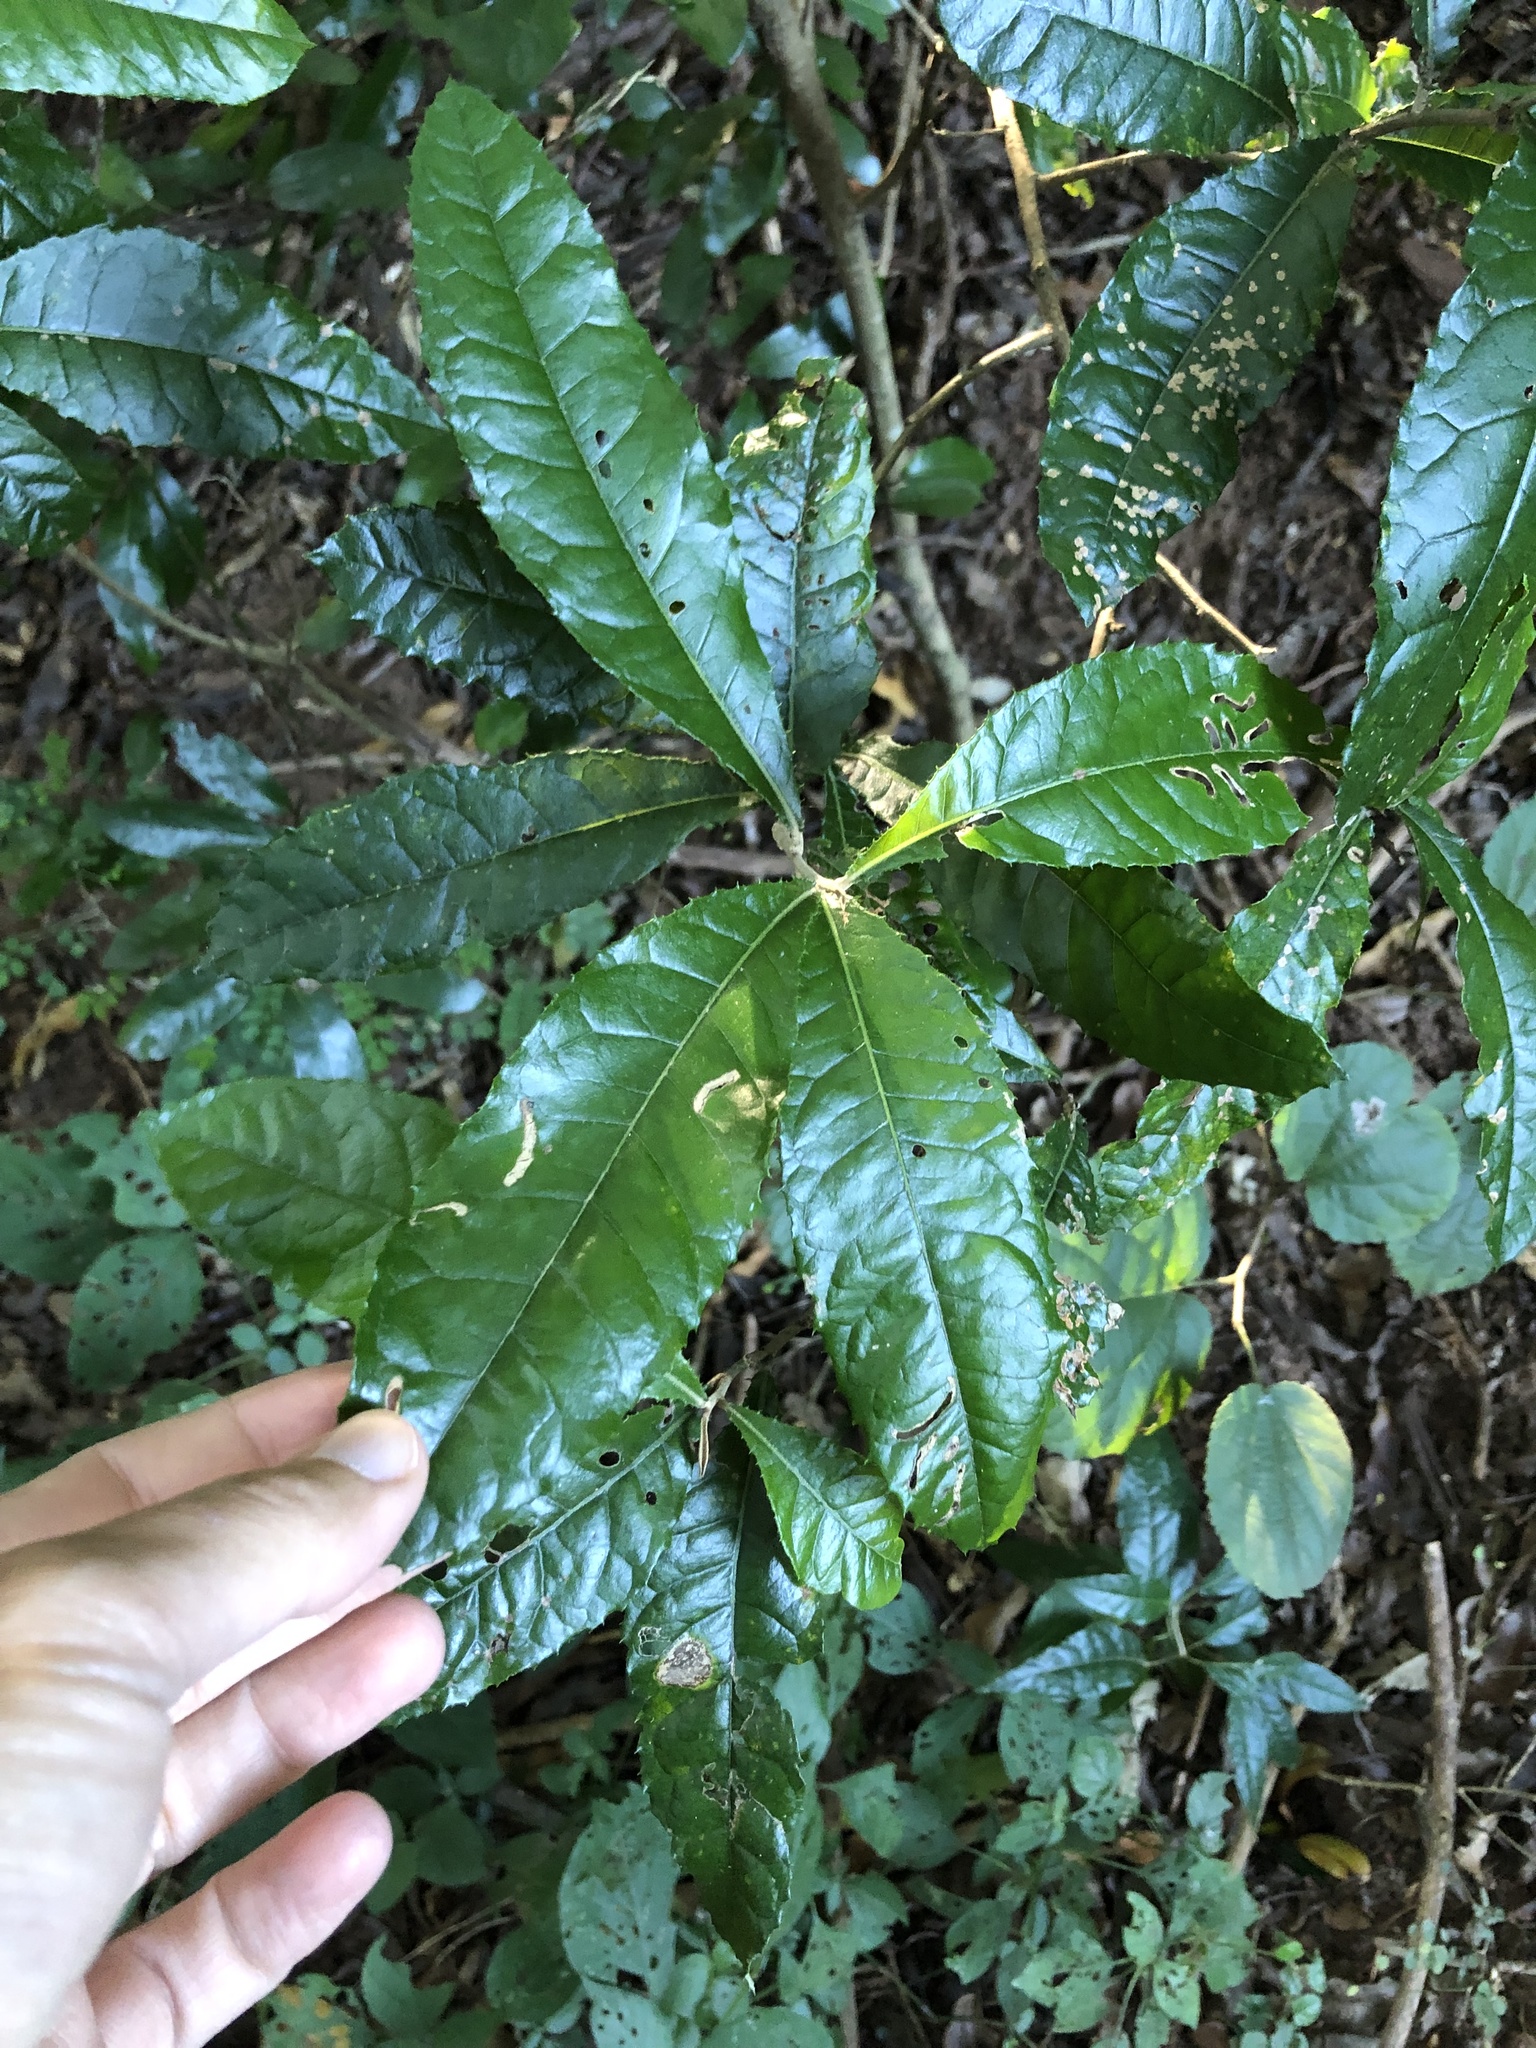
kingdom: Plantae
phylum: Tracheophyta
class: Magnoliopsida
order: Asterales
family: Asteraceae
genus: Brachylaena
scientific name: Brachylaena discolor
